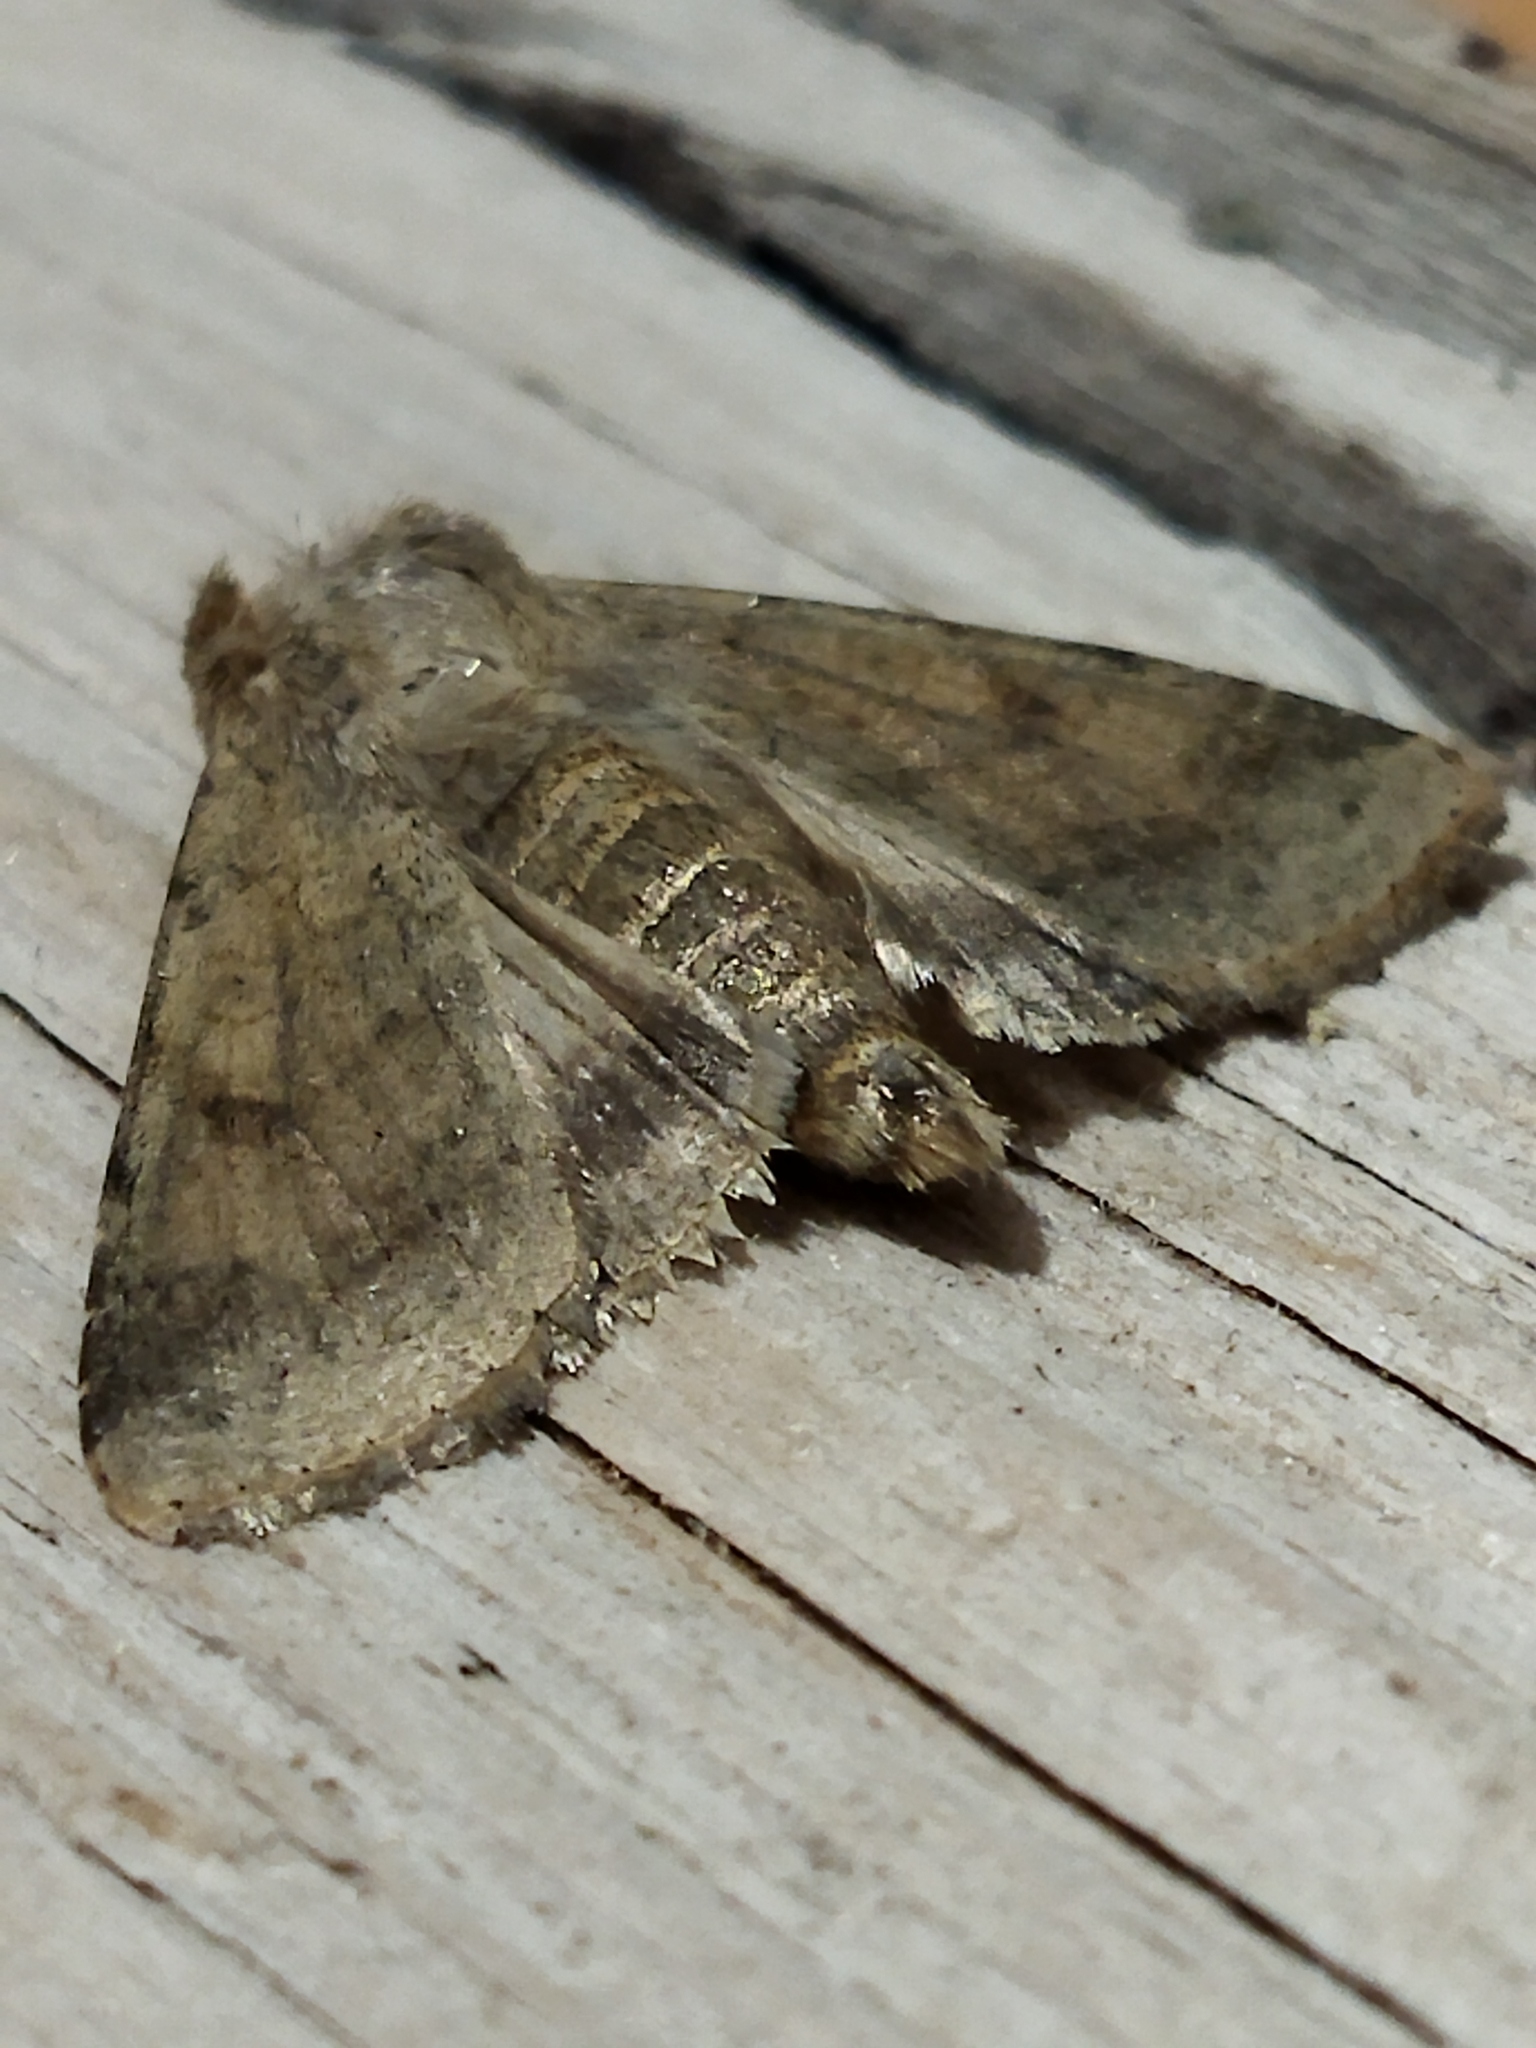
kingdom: Animalia
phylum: Arthropoda
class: Insecta
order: Lepidoptera
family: Noctuidae
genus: Helicoverpa
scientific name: Helicoverpa armigera
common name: Cotton bollworm
